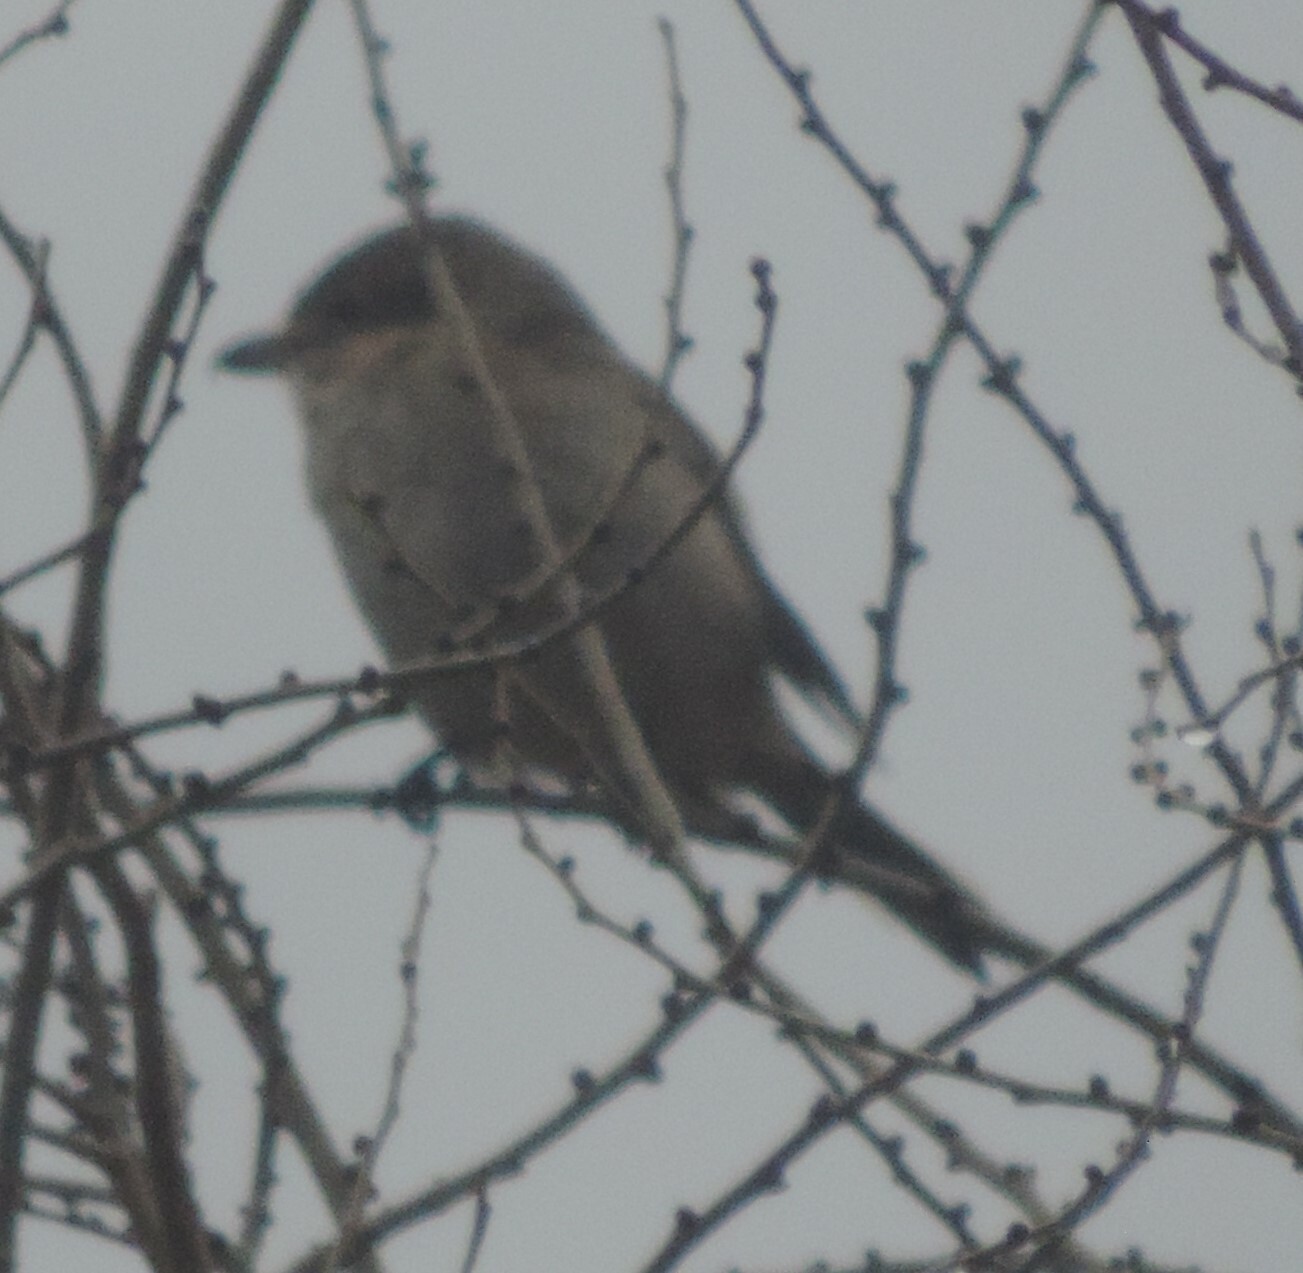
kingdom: Animalia
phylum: Chordata
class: Aves
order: Passeriformes
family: Laniidae
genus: Lanius
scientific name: Lanius borealis
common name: Northern shrike
